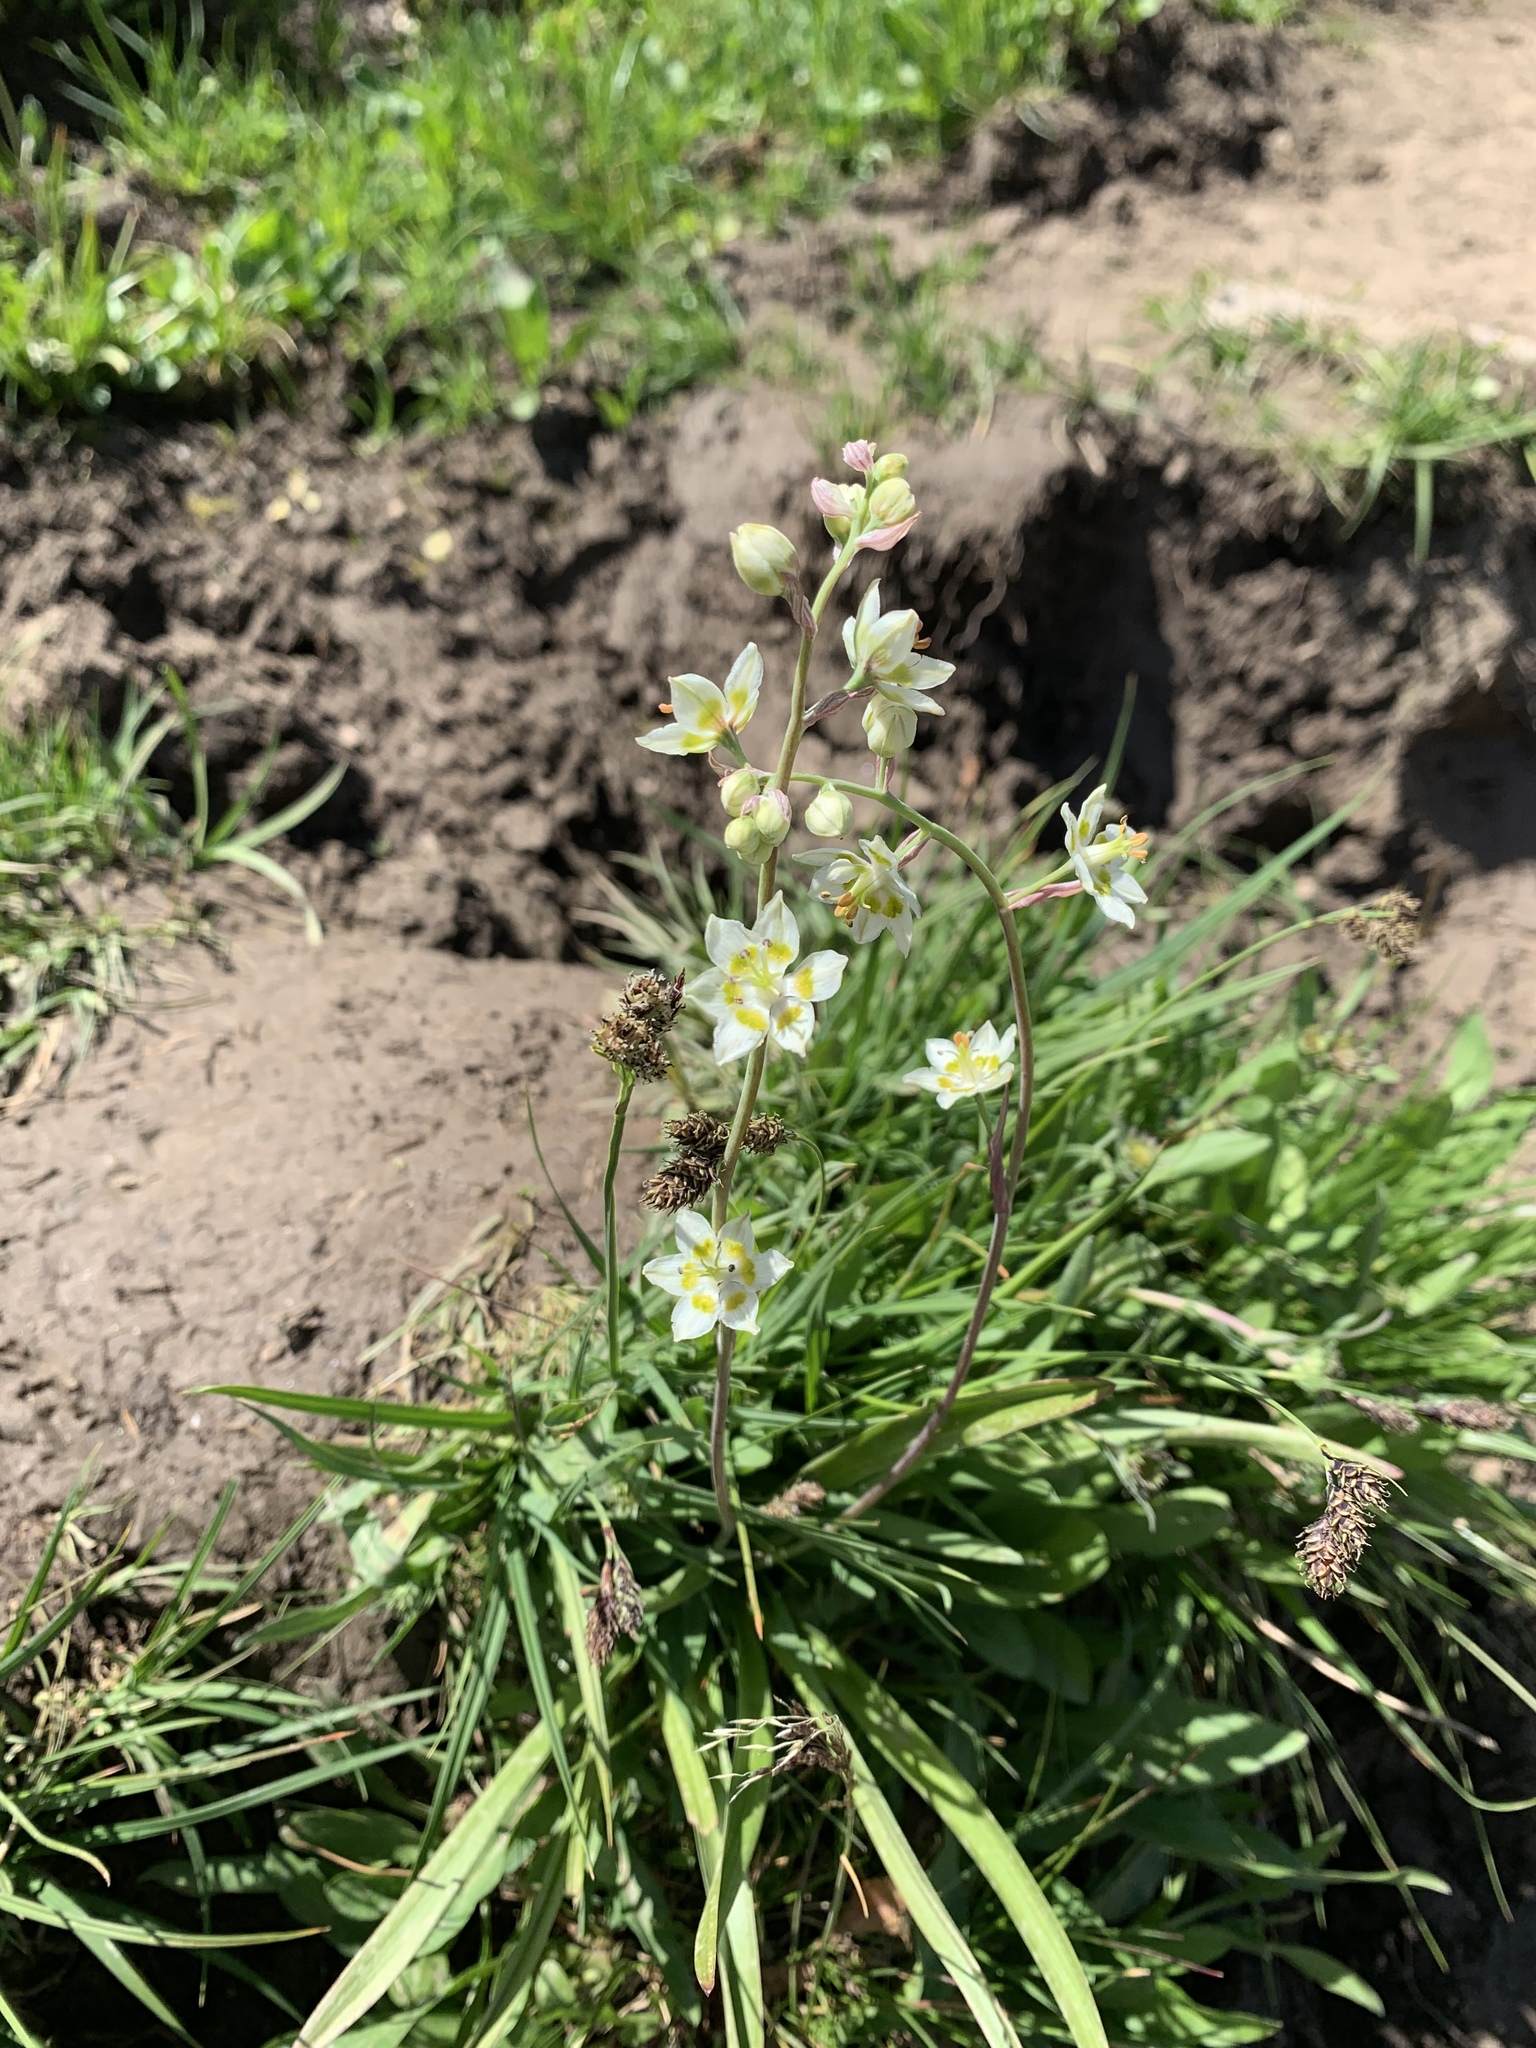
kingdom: Plantae
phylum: Tracheophyta
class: Liliopsida
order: Liliales
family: Melanthiaceae
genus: Anticlea
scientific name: Anticlea elegans
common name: Mountain death camas
